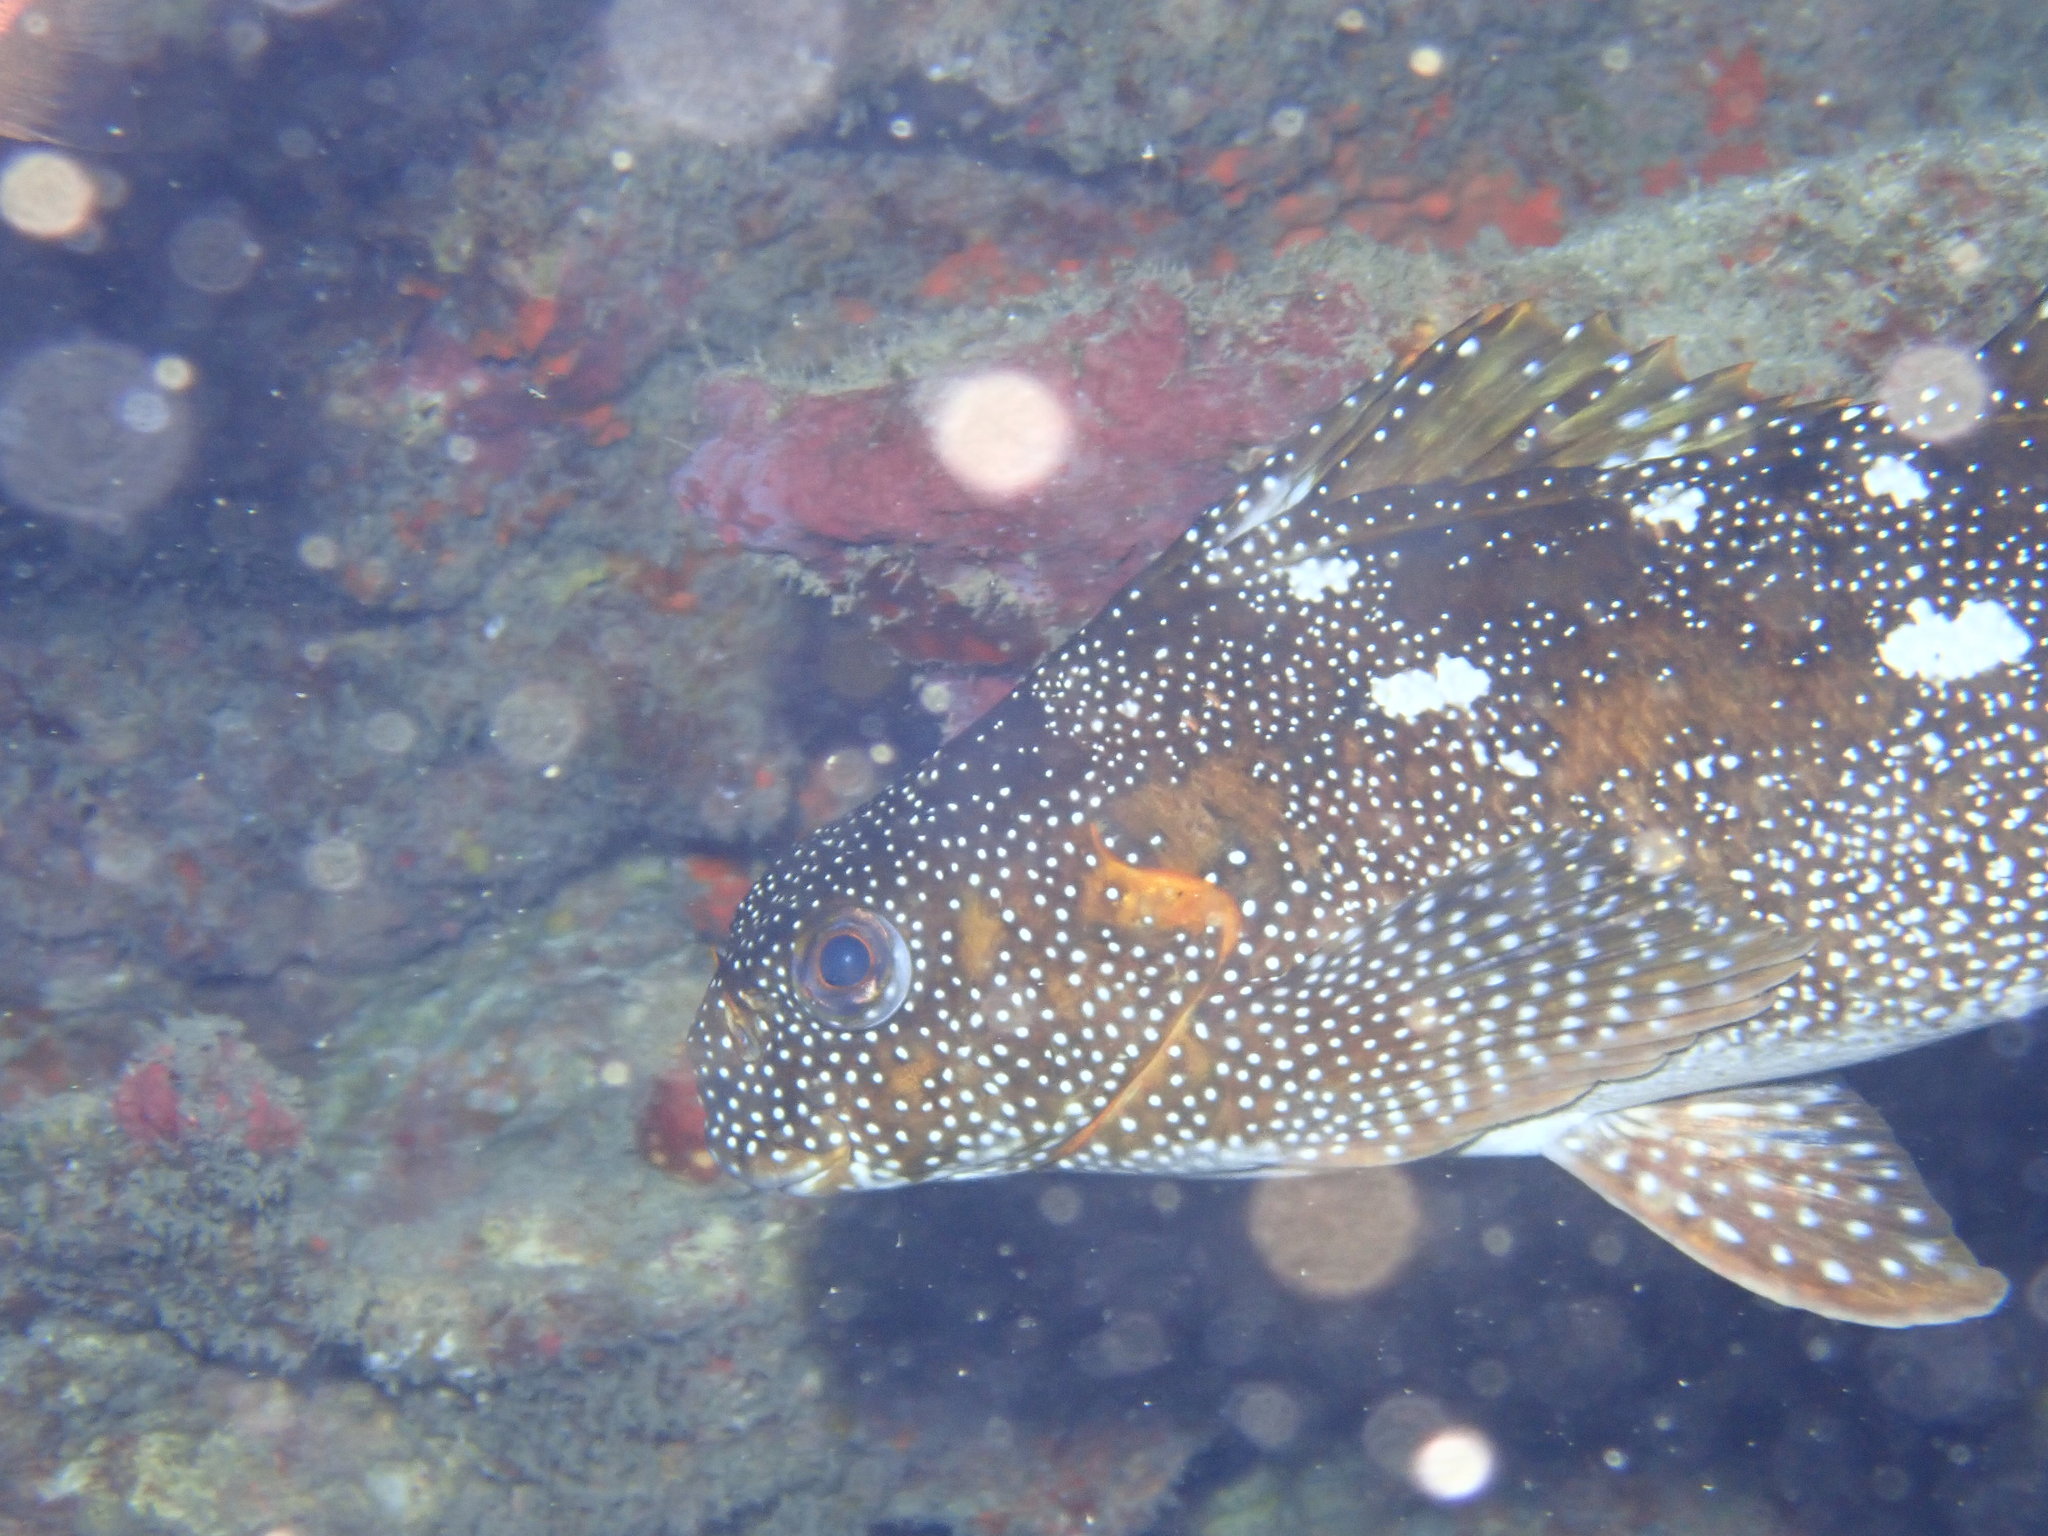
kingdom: Animalia
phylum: Chordata
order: Perciformes
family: Aplodactylidae
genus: Aplodactylus
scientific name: Aplodactylus etheridgii
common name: Notchheaded marblefish
